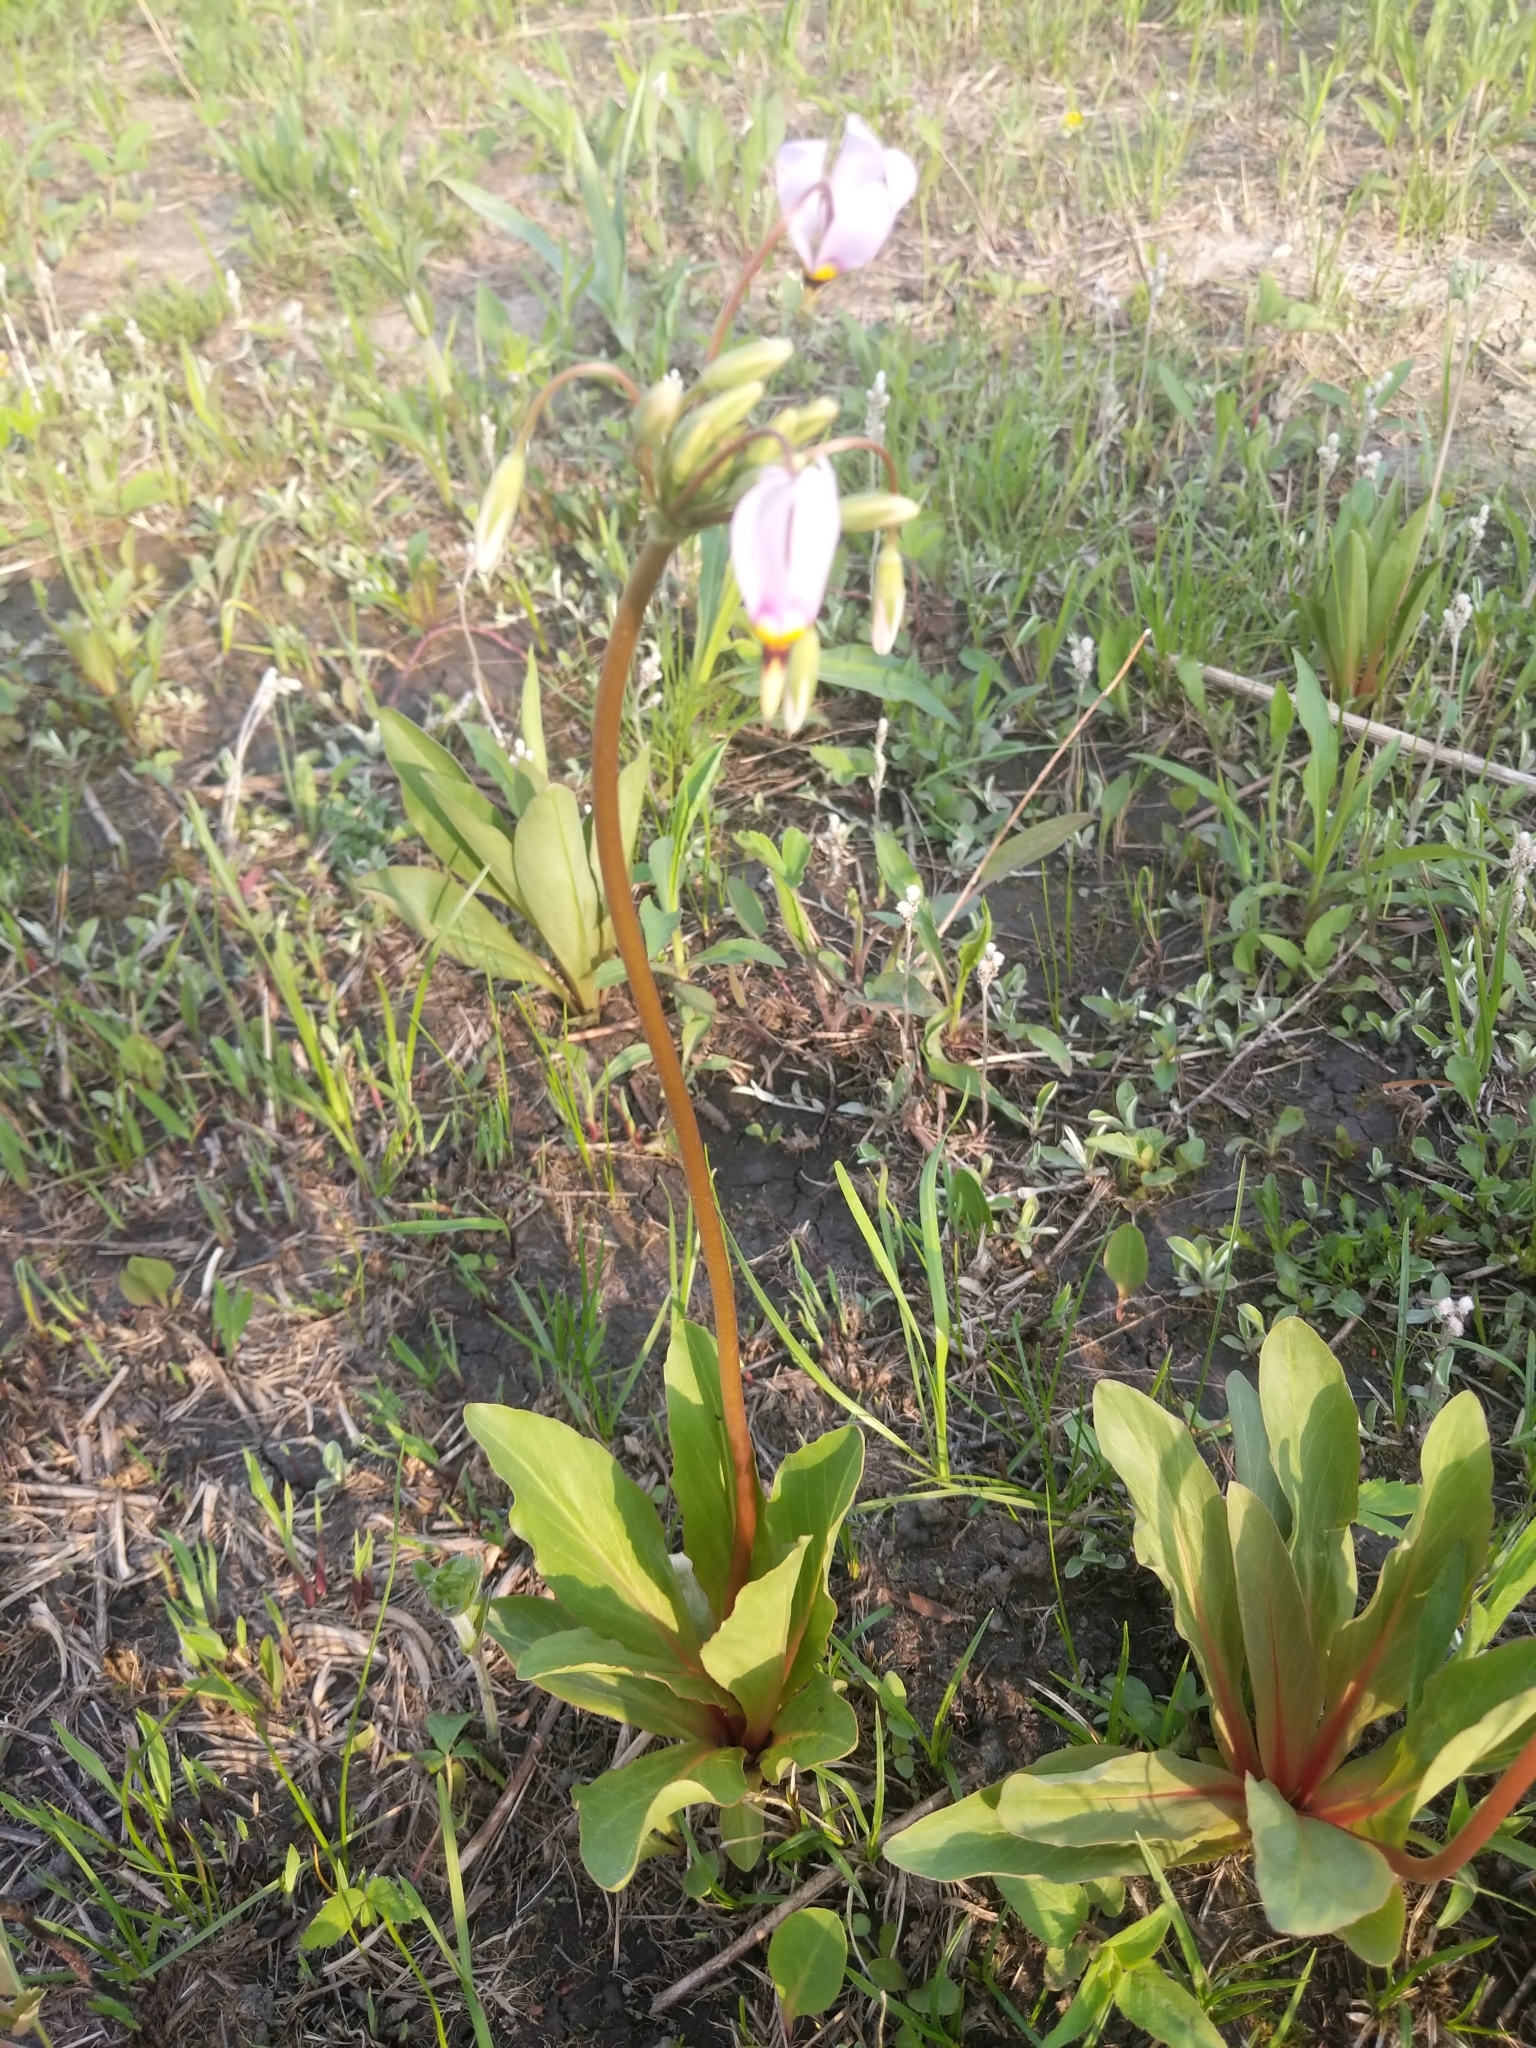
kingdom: Plantae
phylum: Tracheophyta
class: Magnoliopsida
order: Ericales
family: Primulaceae
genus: Dodecatheon
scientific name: Dodecatheon meadia
